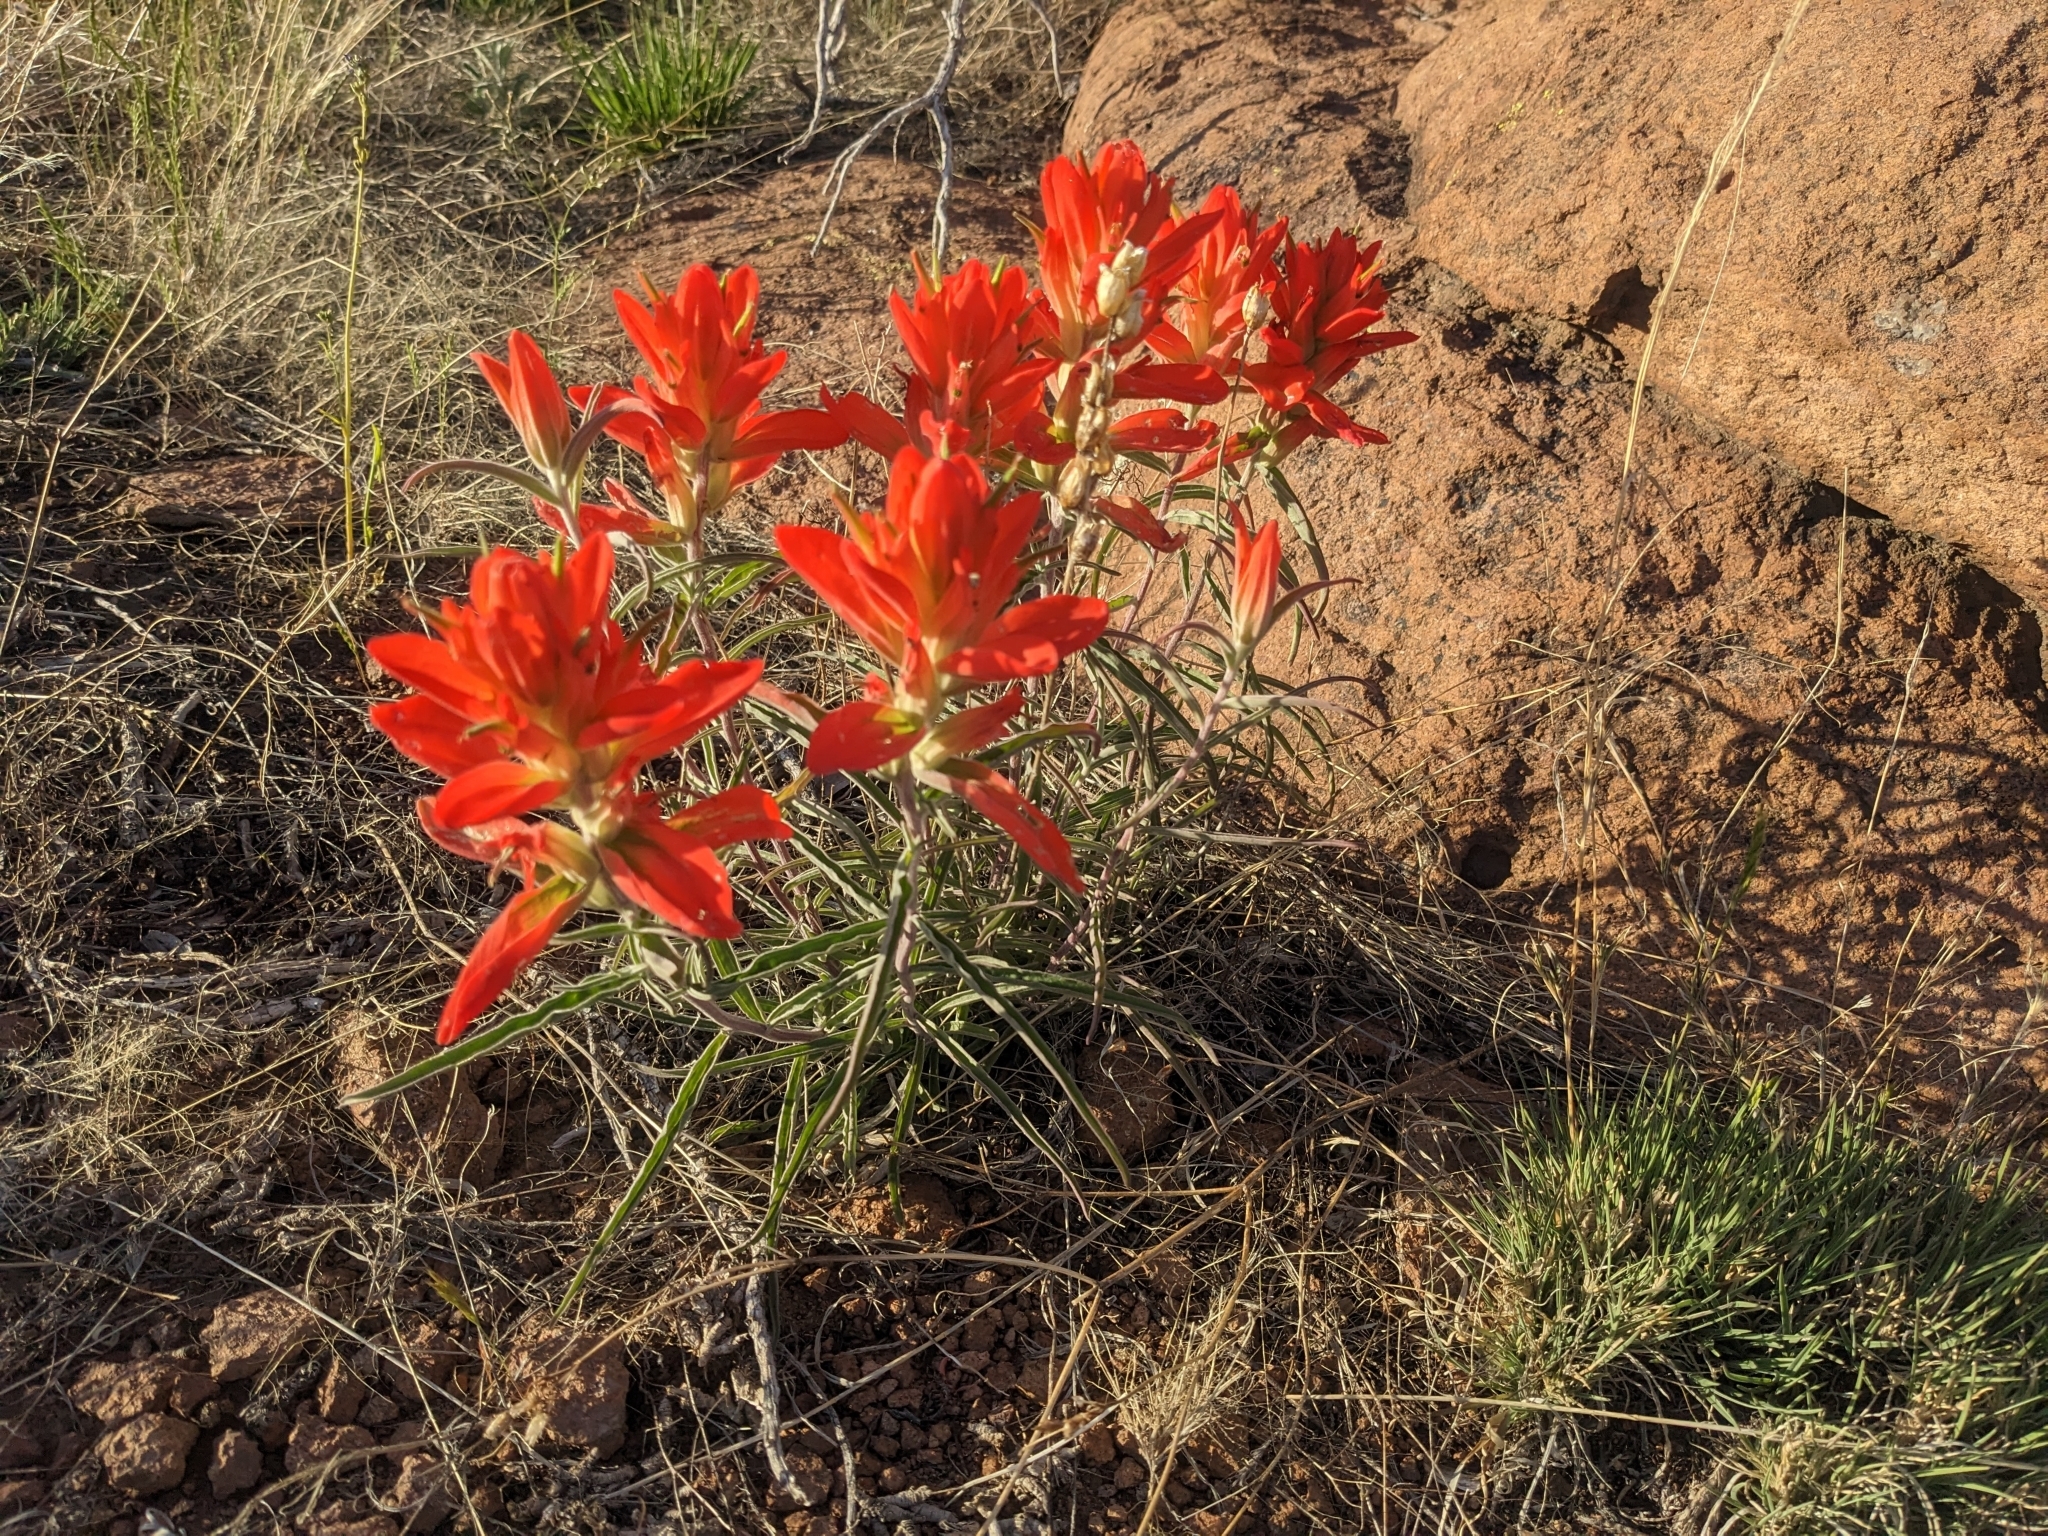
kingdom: Plantae
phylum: Tracheophyta
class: Magnoliopsida
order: Lamiales
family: Orobanchaceae
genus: Castilleja
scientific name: Castilleja integra
